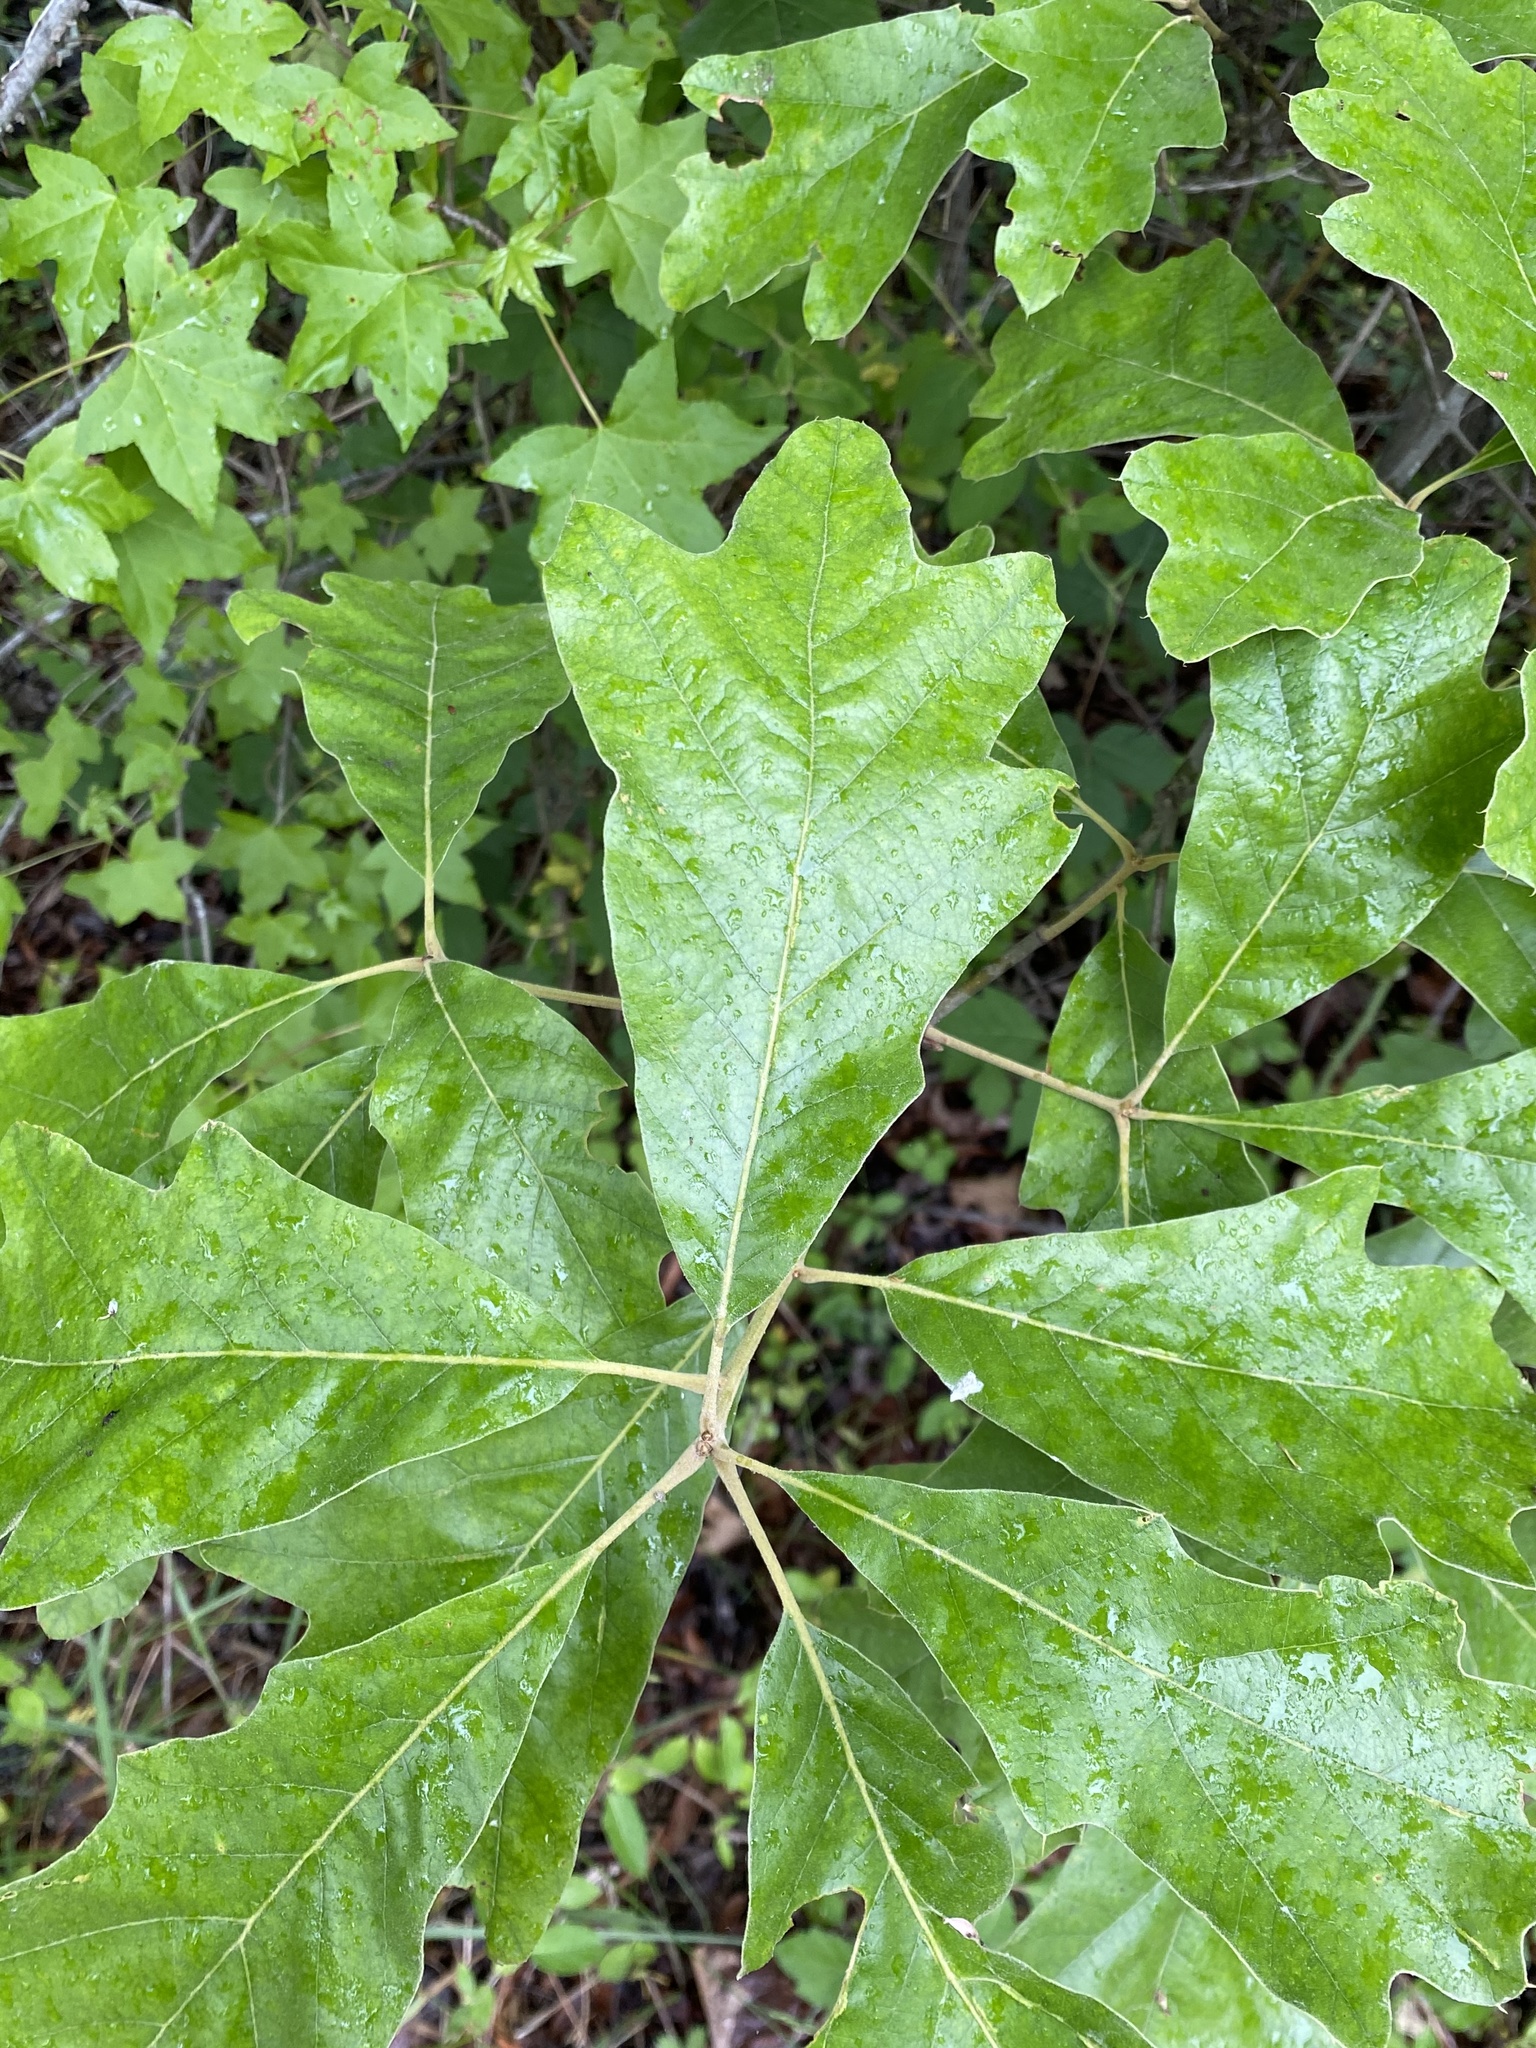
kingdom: Plantae
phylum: Tracheophyta
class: Magnoliopsida
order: Fagales
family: Fagaceae
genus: Quercus
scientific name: Quercus falcata
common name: Southern red oak
